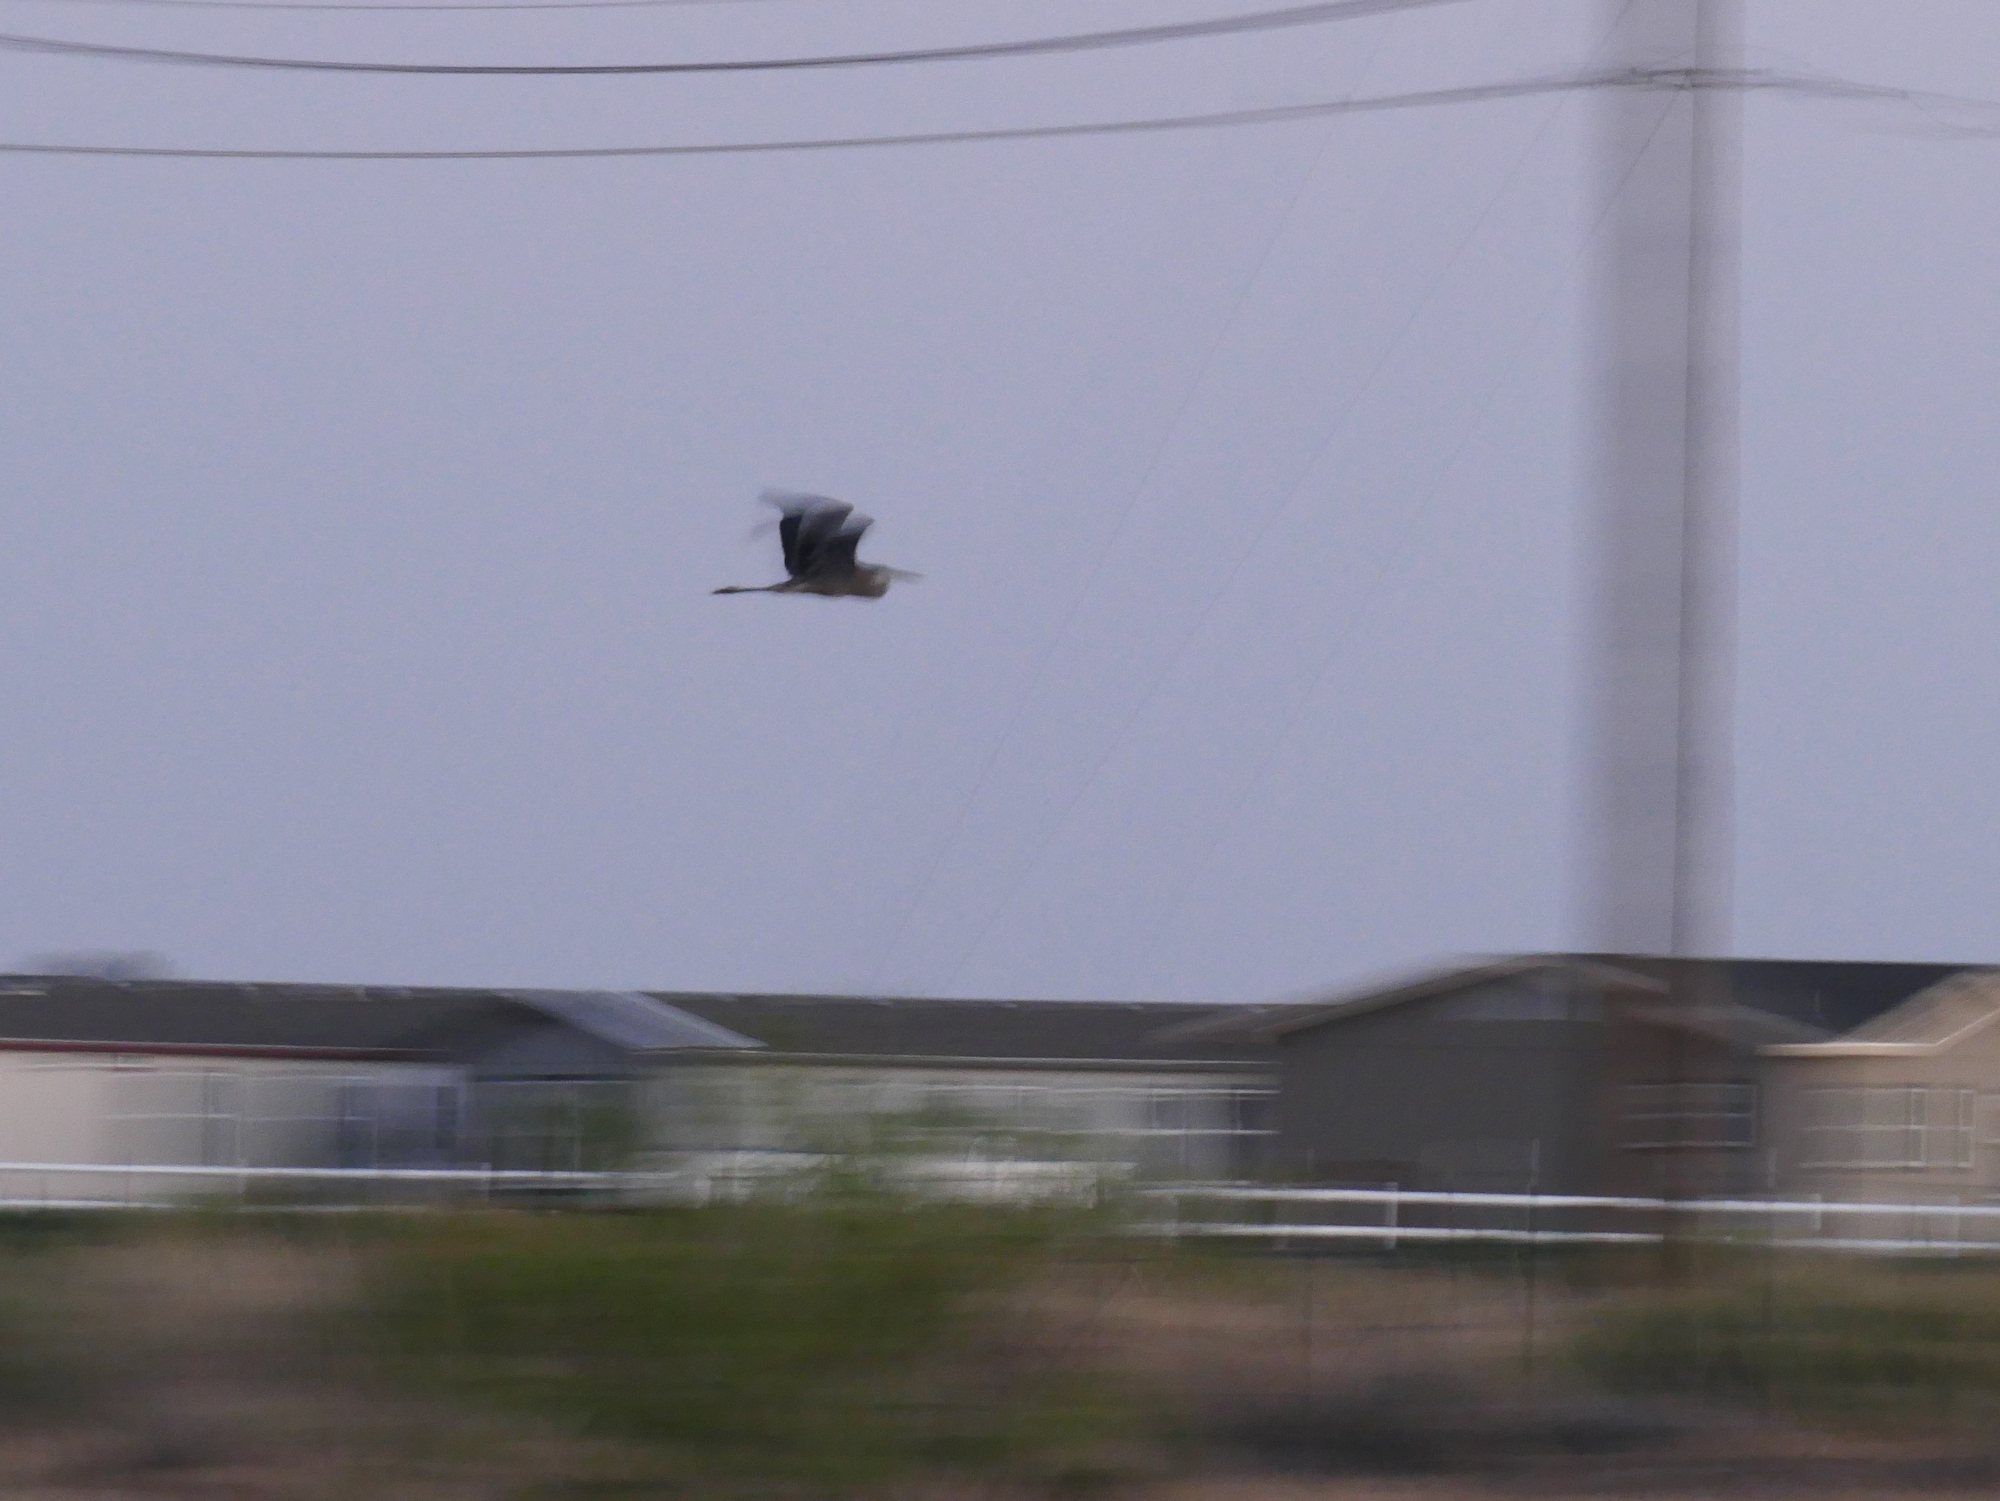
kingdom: Animalia
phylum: Chordata
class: Aves
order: Pelecaniformes
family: Ardeidae
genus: Ardea
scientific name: Ardea herodias
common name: Great blue heron
